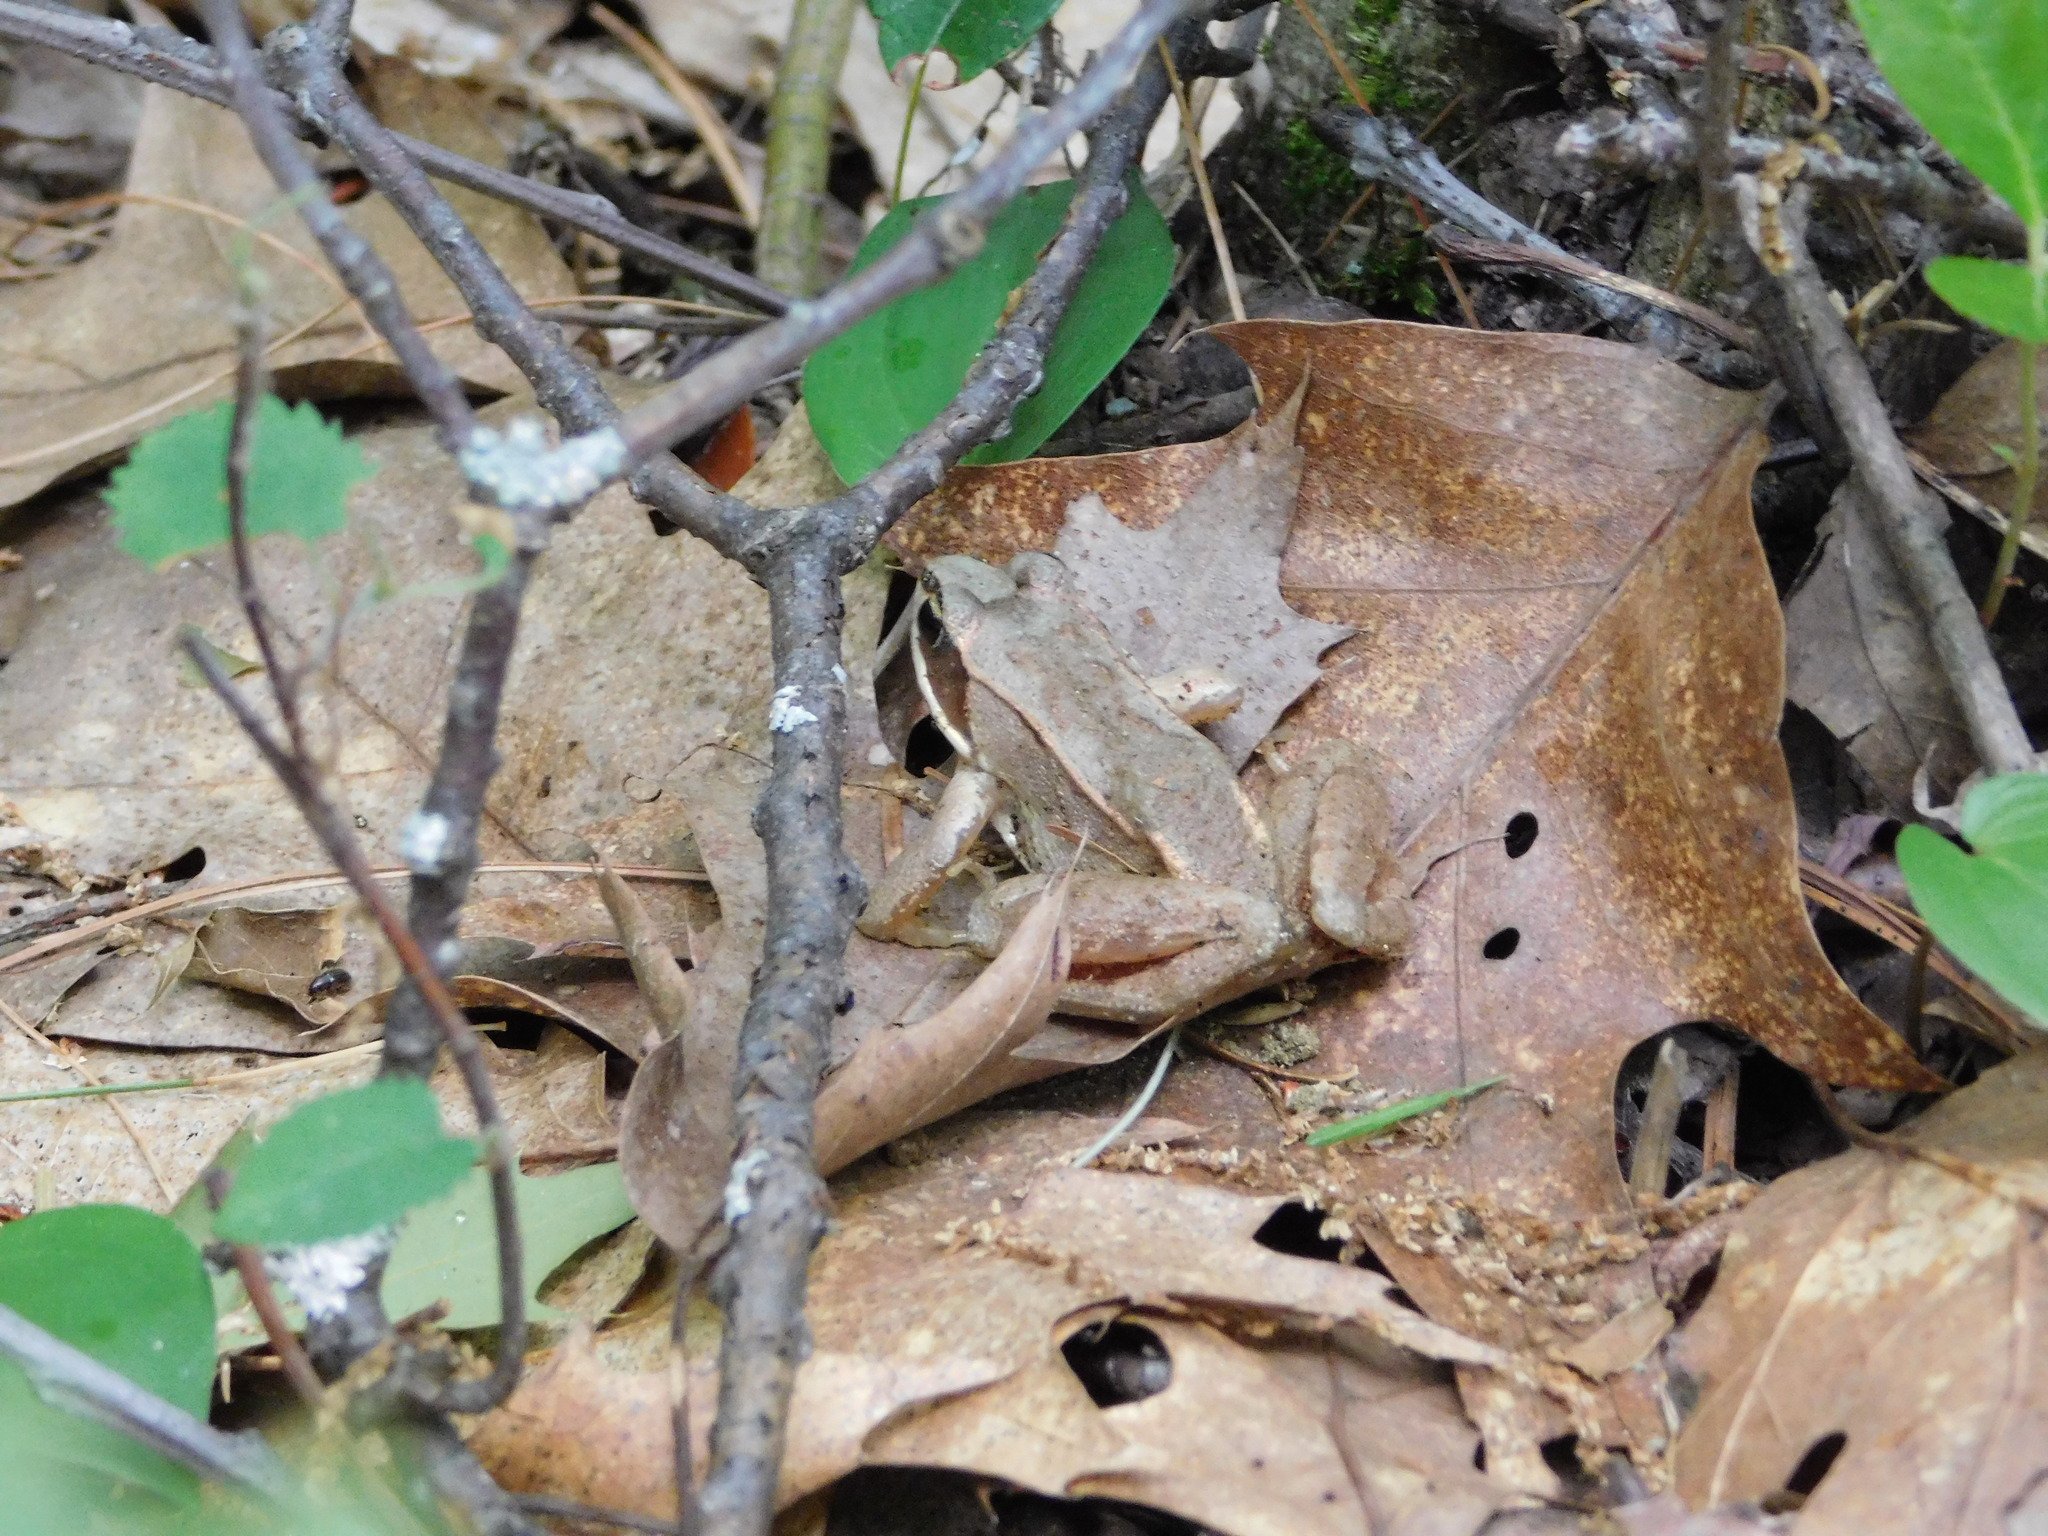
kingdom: Animalia
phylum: Chordata
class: Amphibia
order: Anura
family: Ranidae
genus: Lithobates
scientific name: Lithobates sylvaticus
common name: Wood frog
